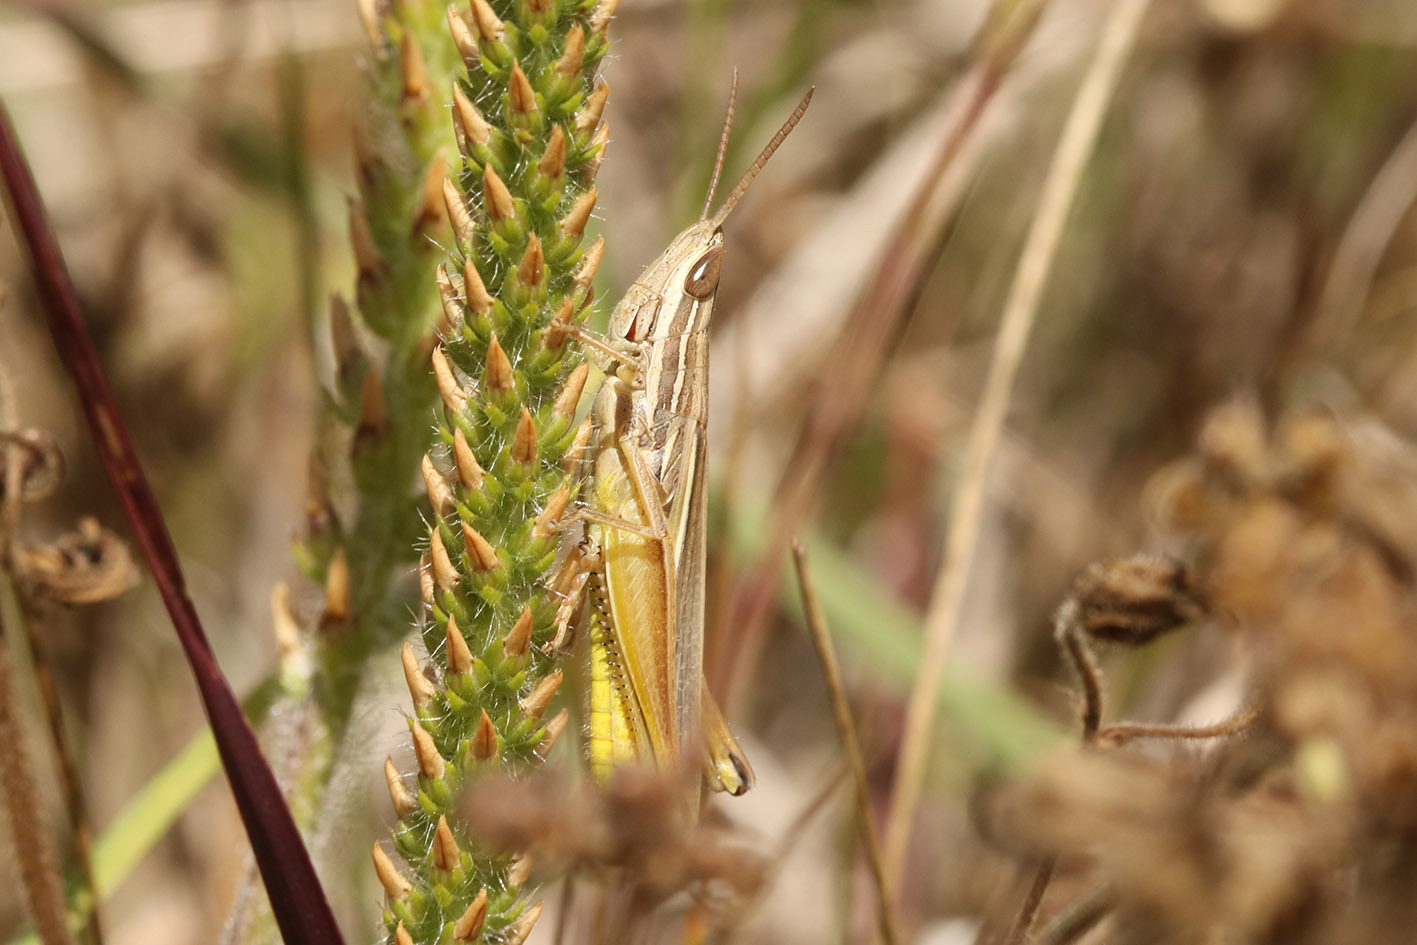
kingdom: Animalia
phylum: Arthropoda
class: Insecta
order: Orthoptera
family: Acrididae
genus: Sinipta
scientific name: Sinipta dalmani
